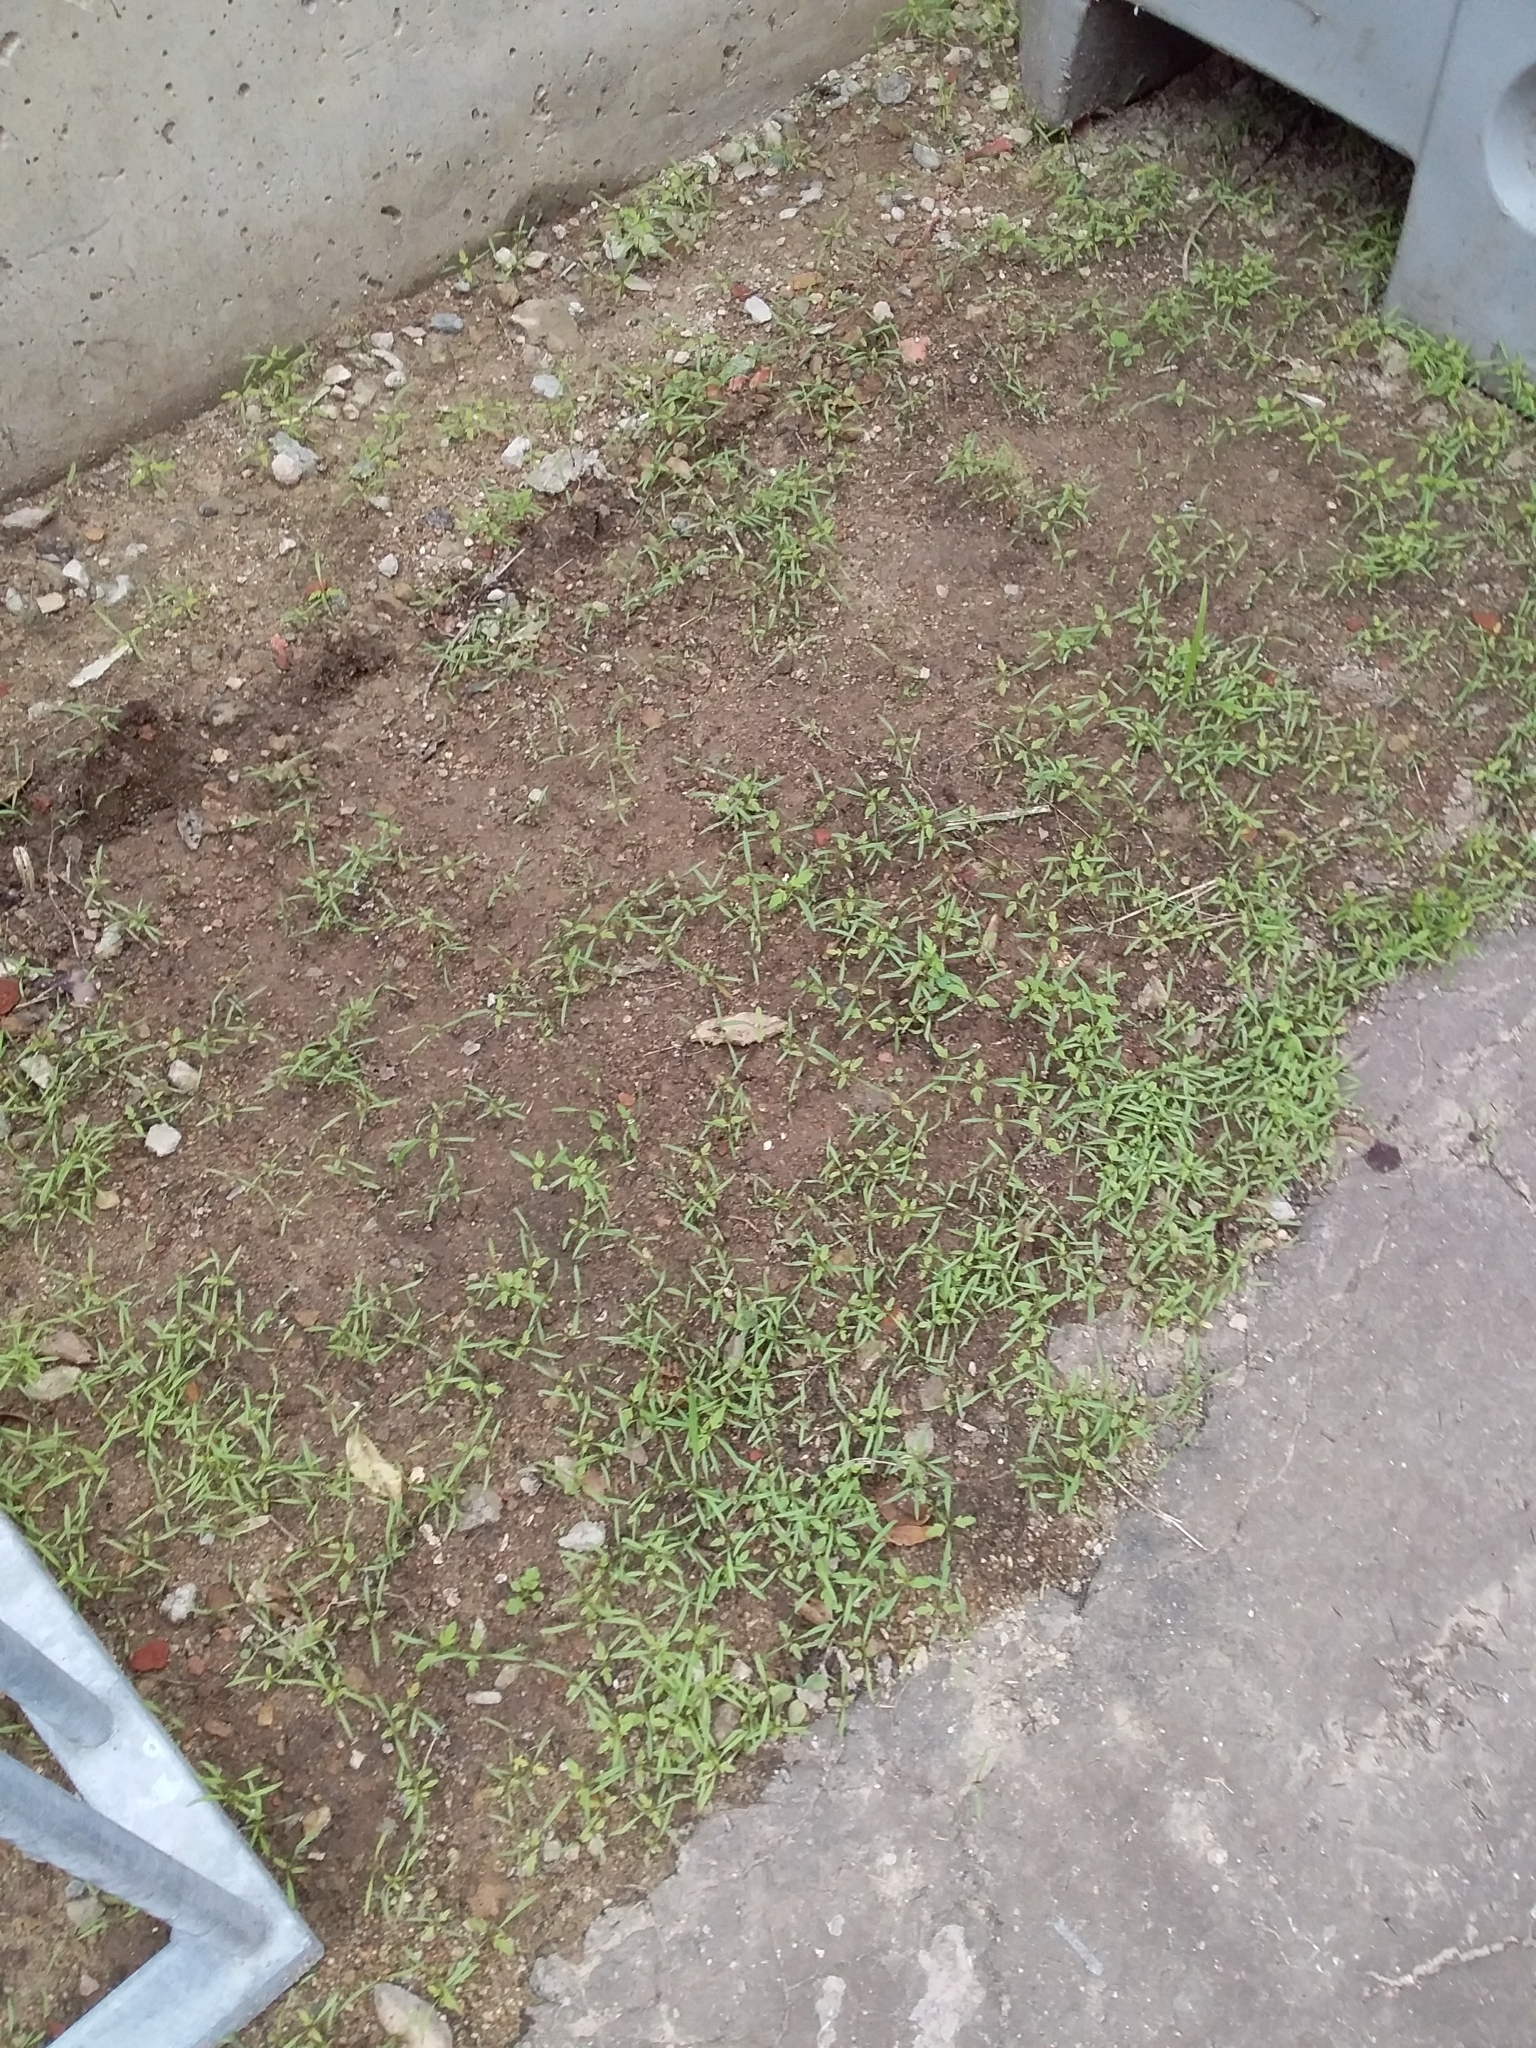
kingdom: Plantae
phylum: Tracheophyta
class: Magnoliopsida
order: Asterales
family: Asteraceae
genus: Bidens
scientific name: Bidens pilosa
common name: Black-jack
